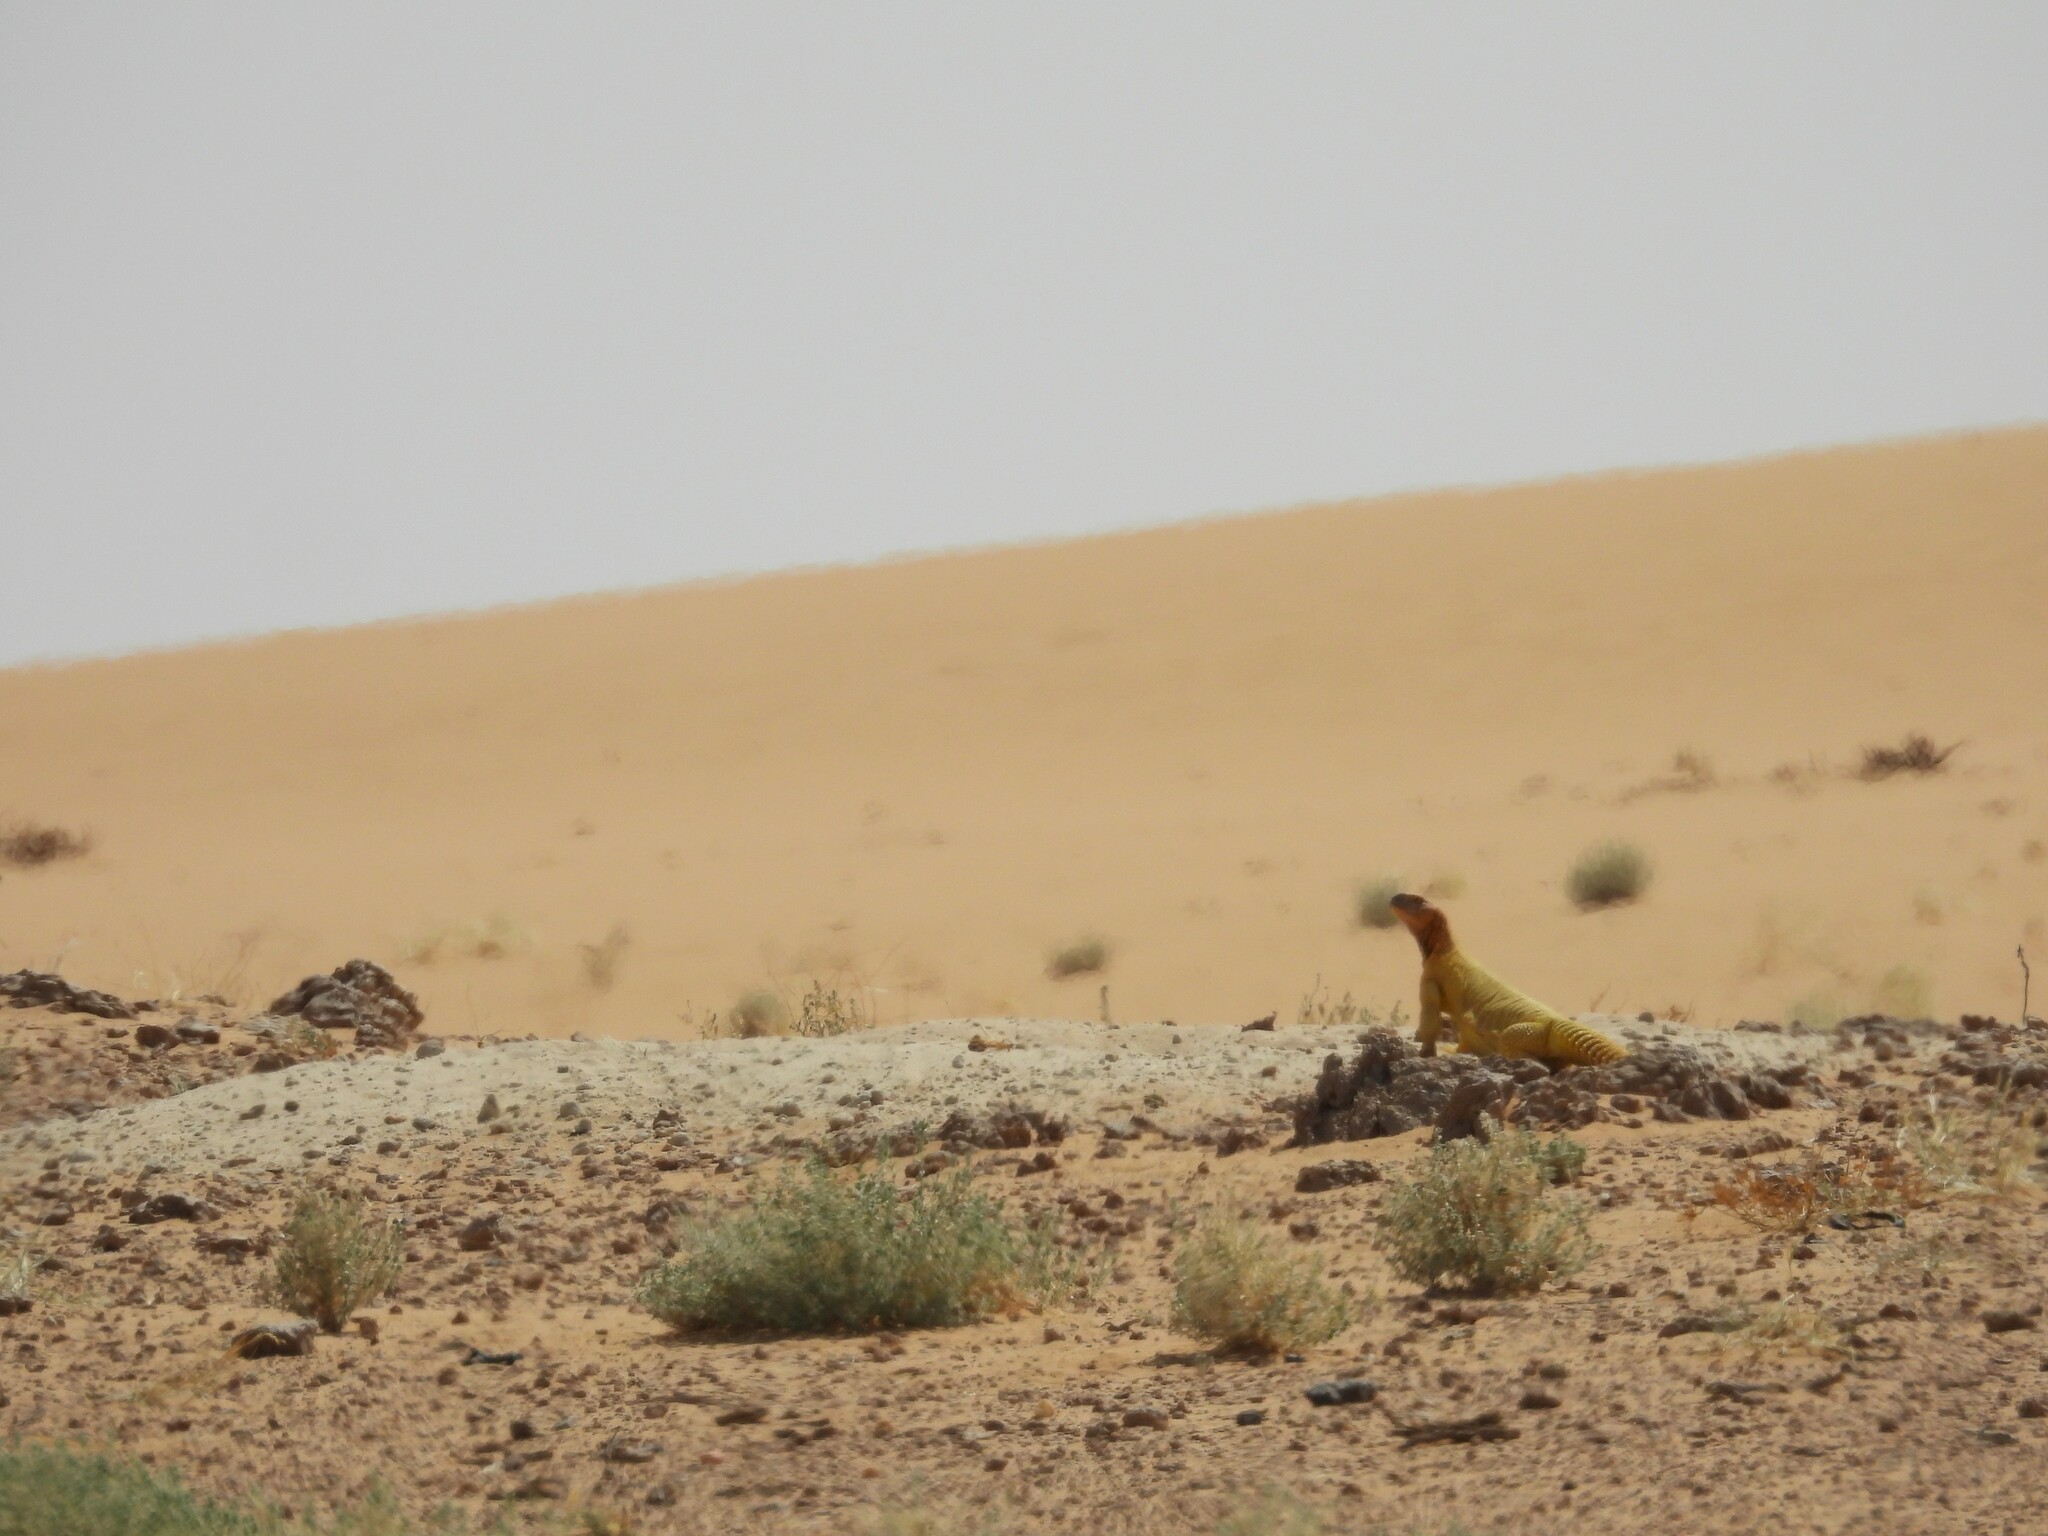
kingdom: Animalia
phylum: Chordata
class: Squamata
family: Agamidae
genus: Uromastyx
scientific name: Uromastyx aegyptia
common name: Egyptian mastigure
